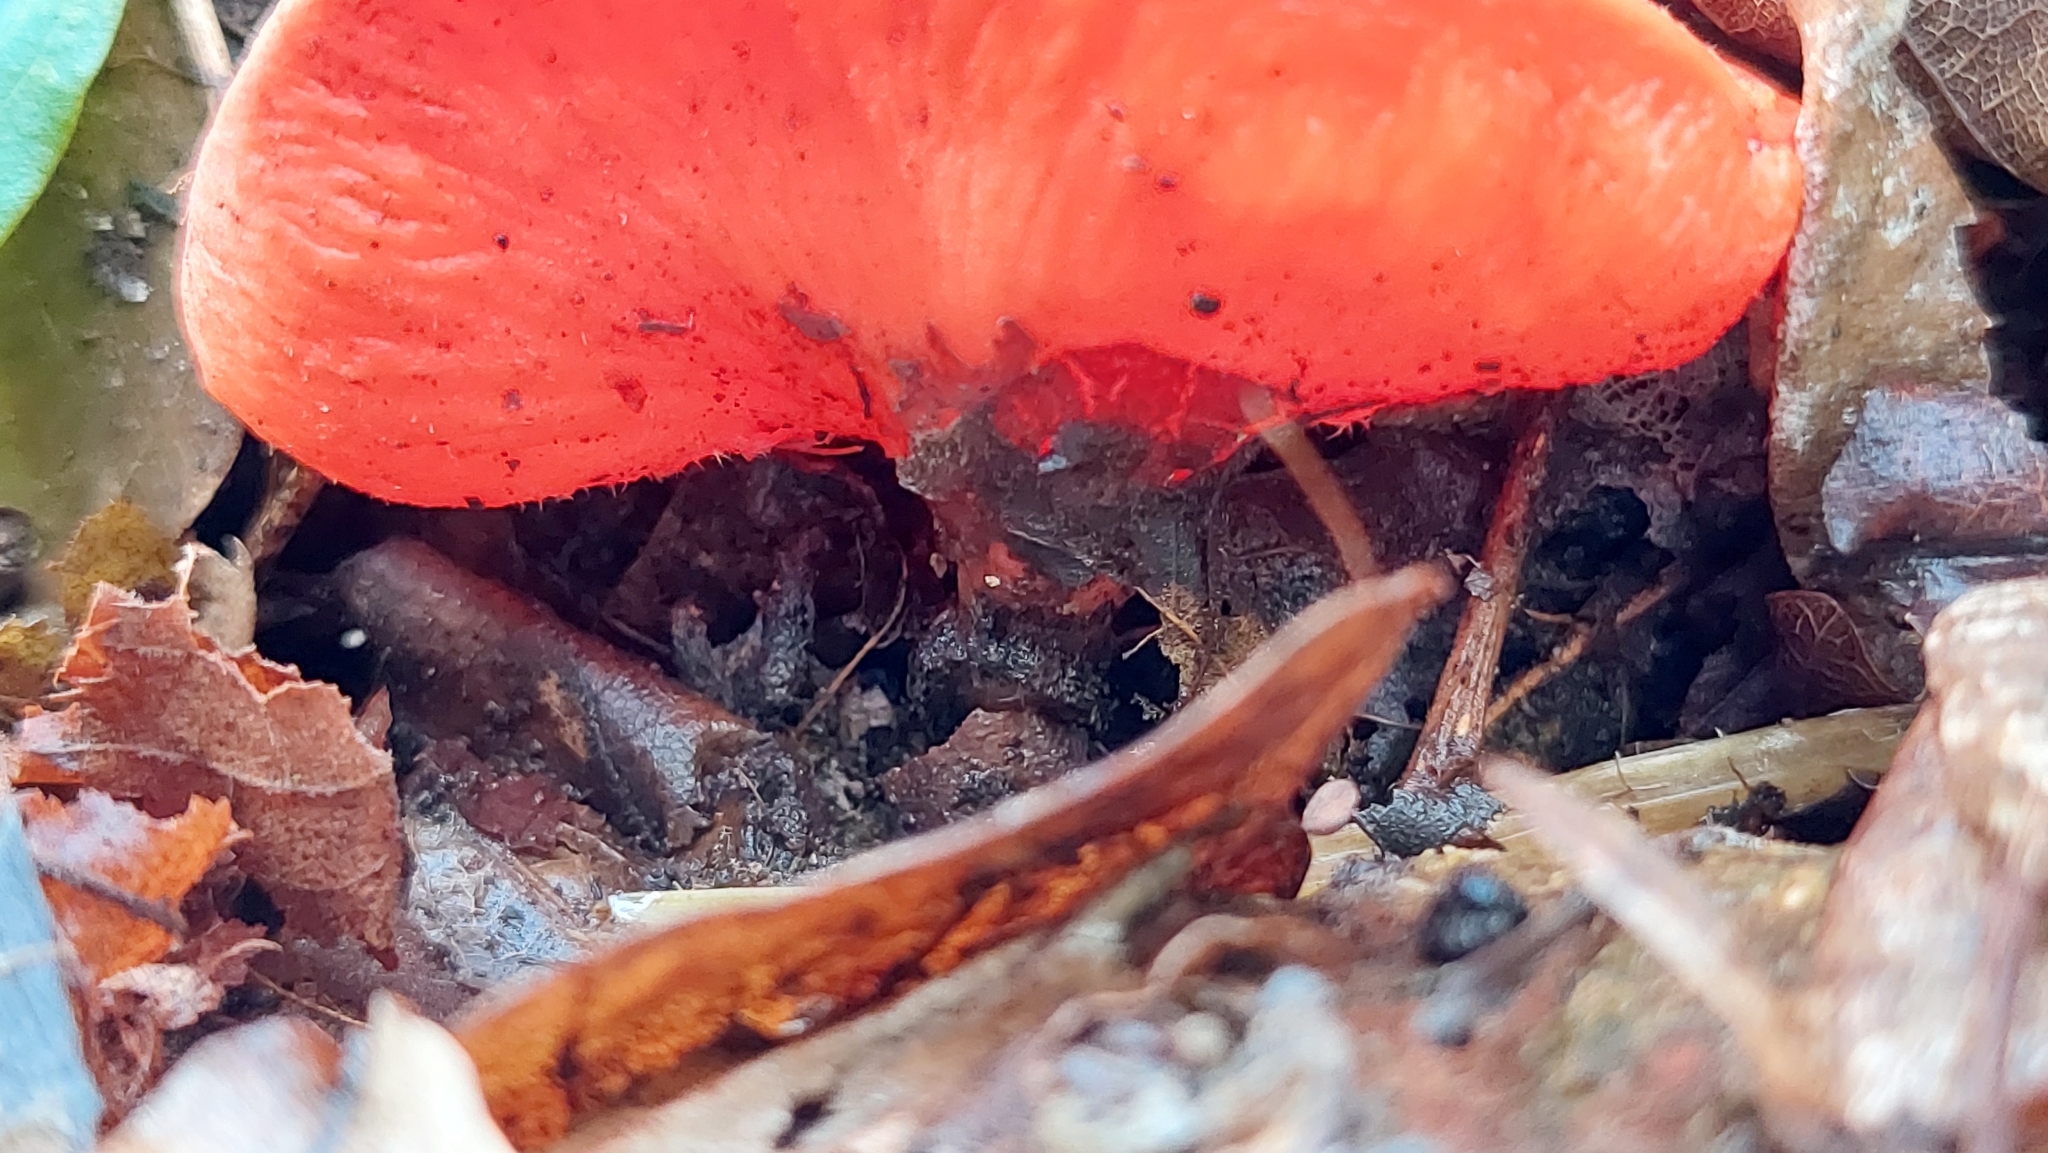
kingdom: Fungi
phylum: Ascomycota
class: Pezizomycetes
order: Pezizales
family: Sarcoscyphaceae
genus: Sarcoscypha
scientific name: Sarcoscypha
